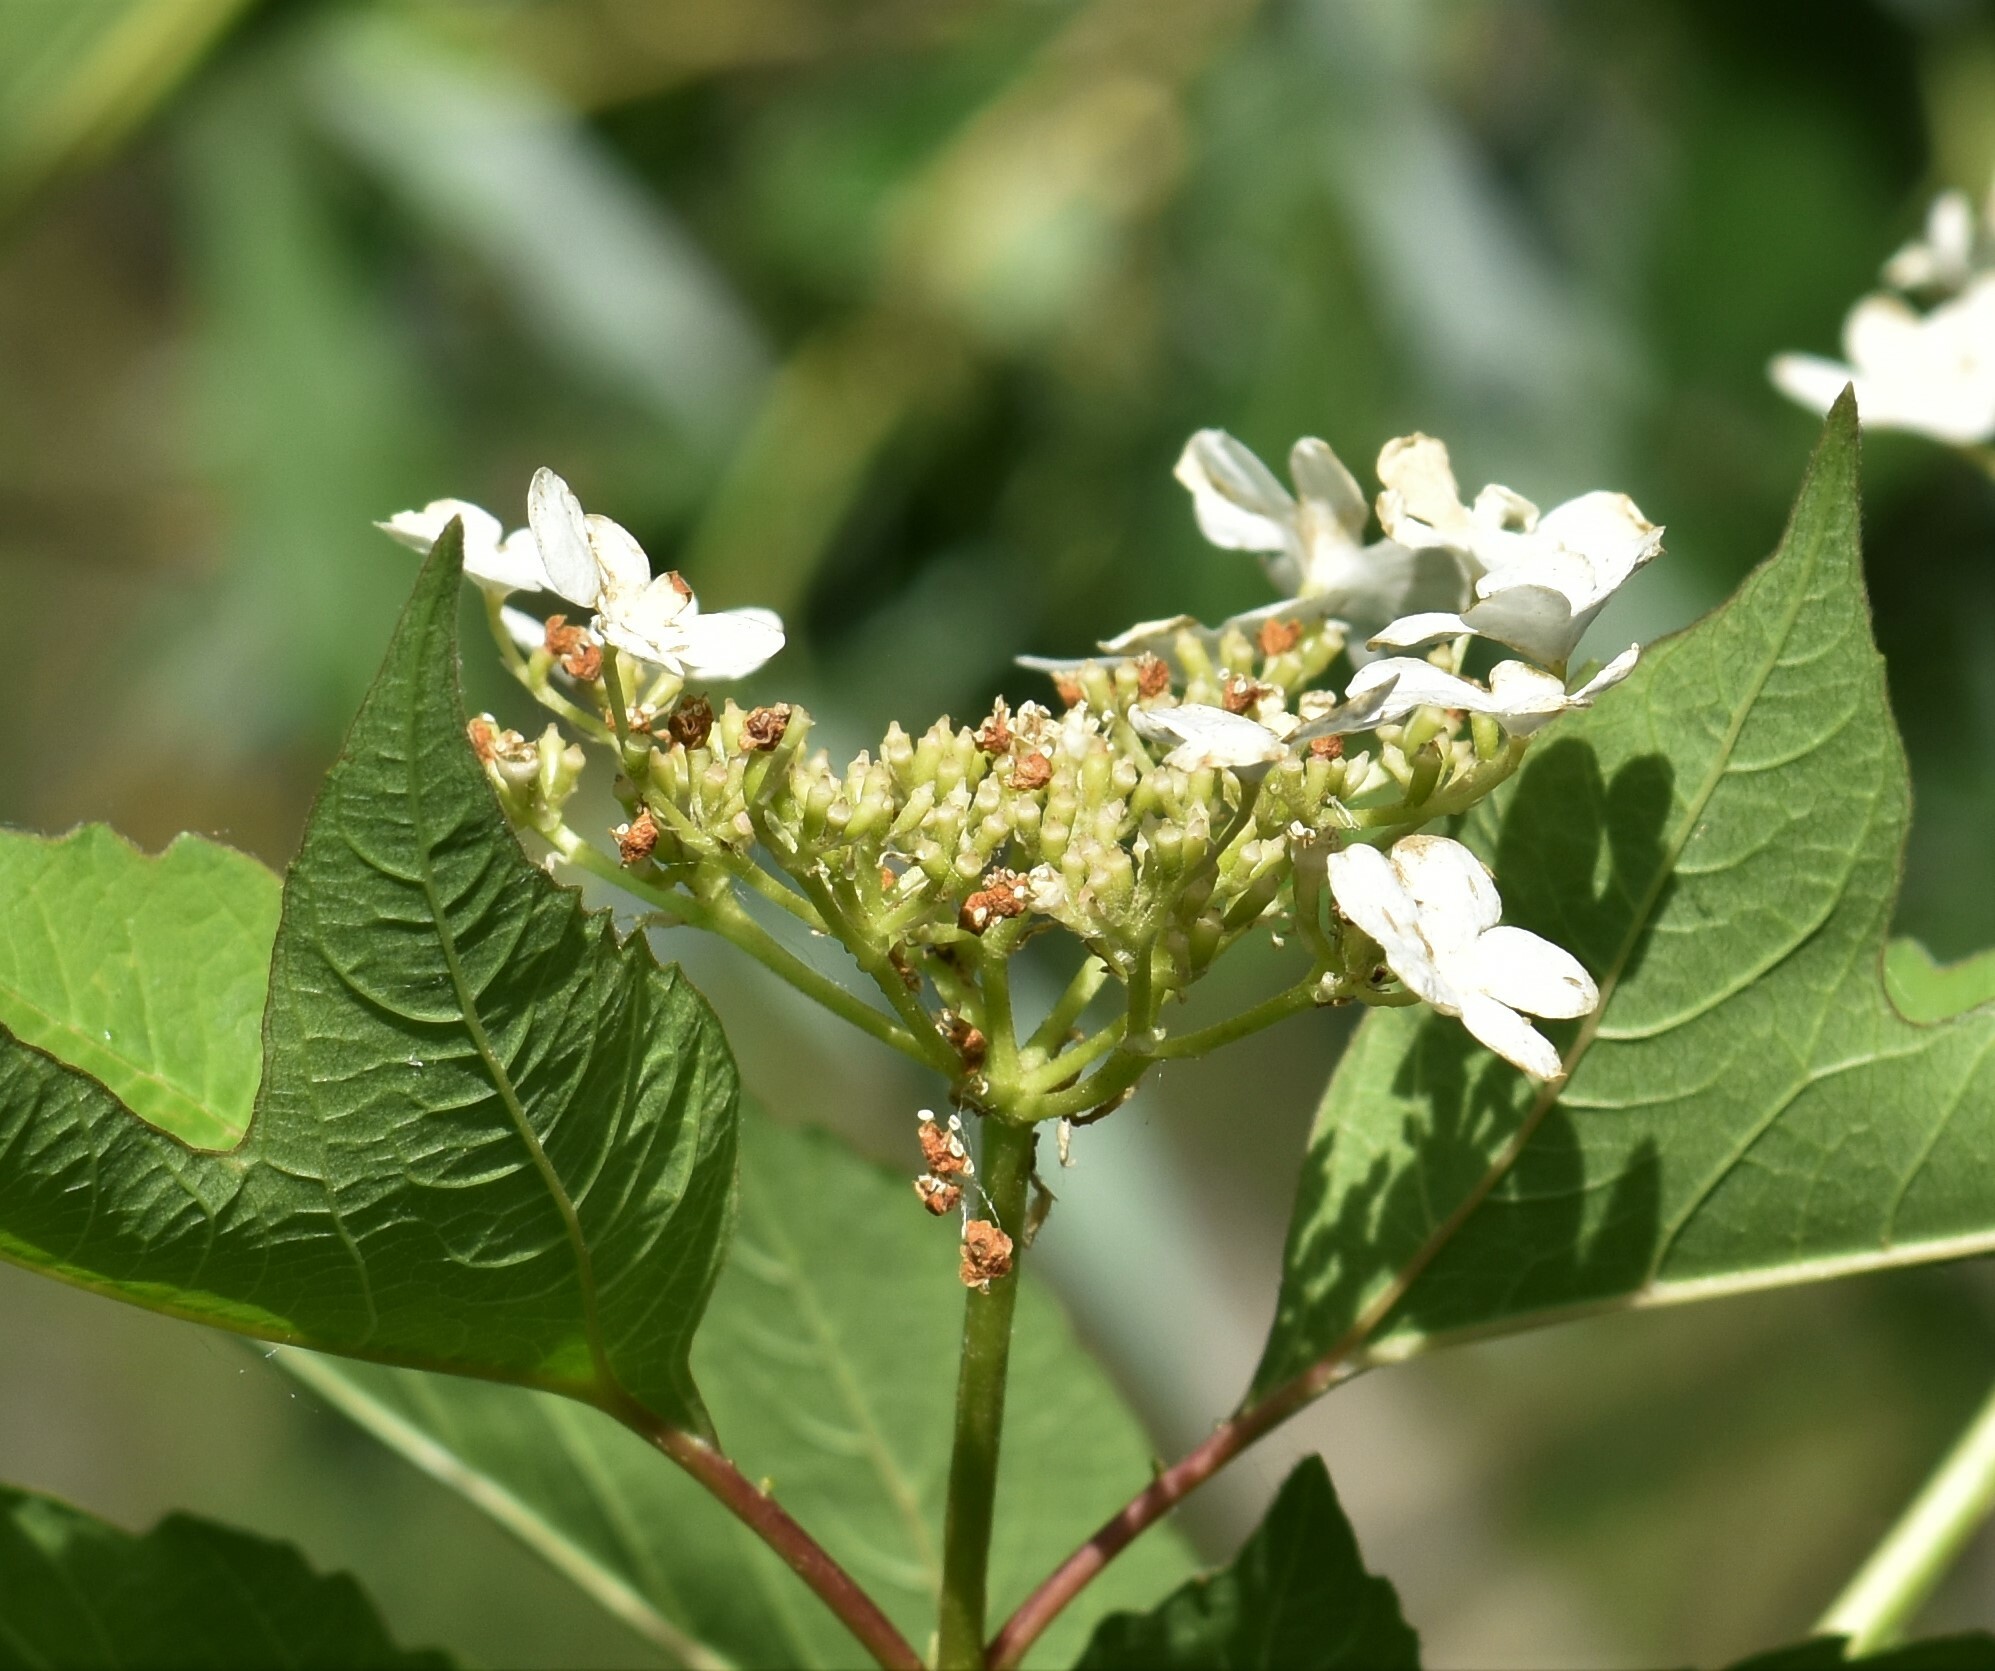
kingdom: Plantae
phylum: Tracheophyta
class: Magnoliopsida
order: Dipsacales
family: Viburnaceae
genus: Viburnum
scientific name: Viburnum opulus
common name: Guelder-rose
